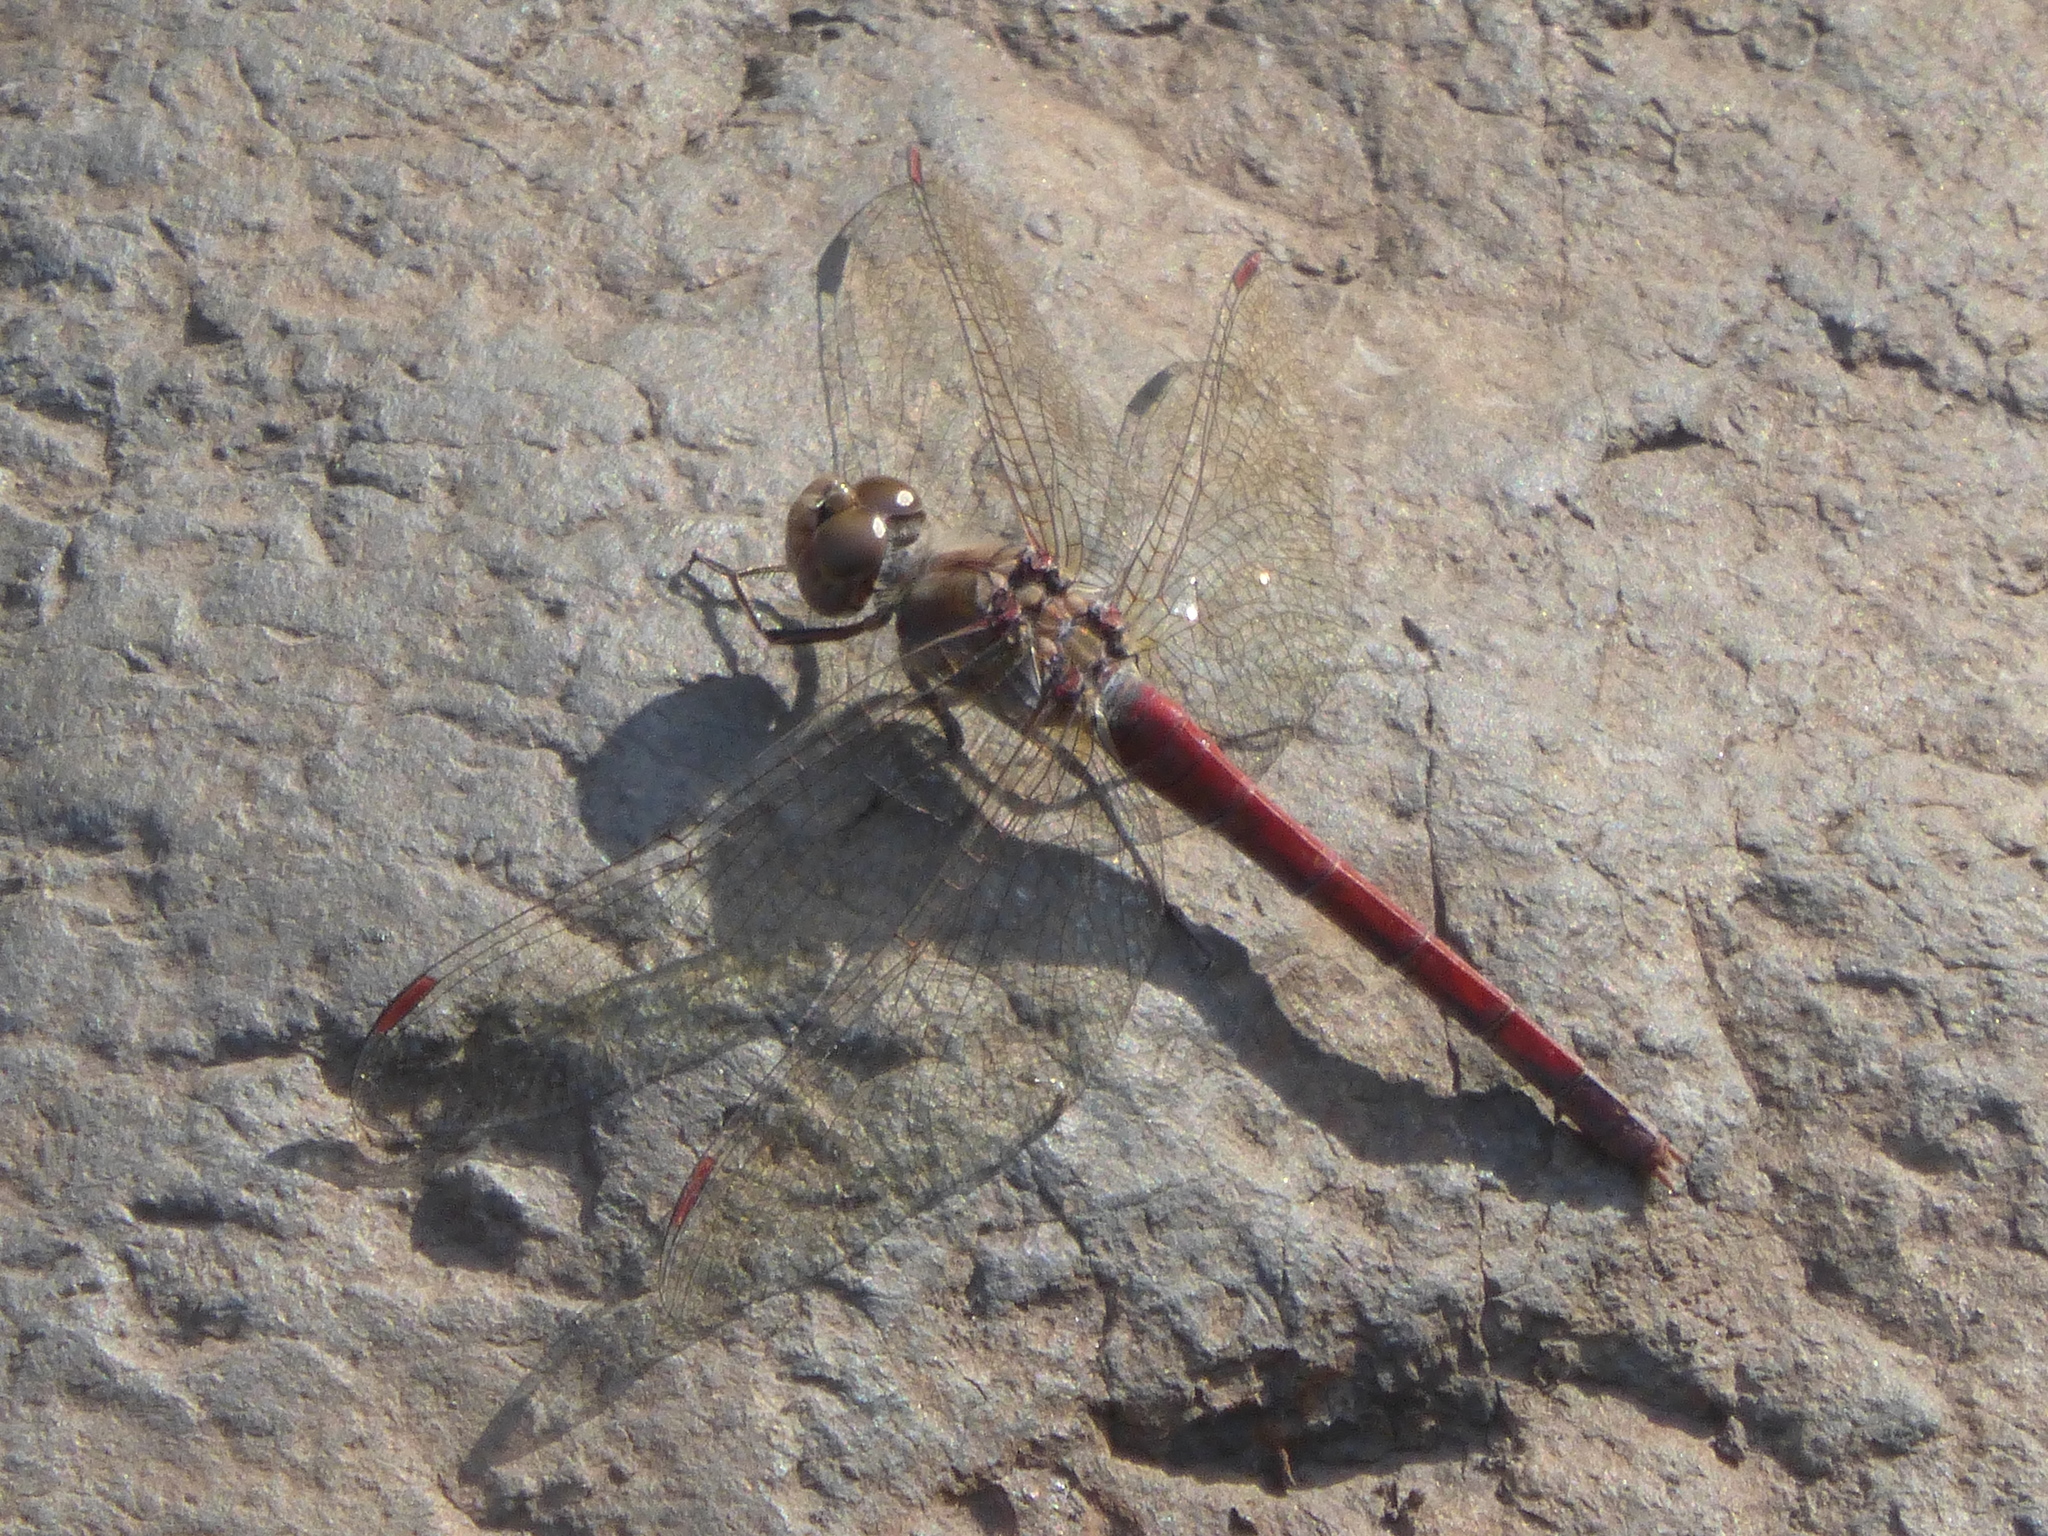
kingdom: Animalia
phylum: Arthropoda
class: Insecta
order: Odonata
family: Libellulidae
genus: Sympetrum
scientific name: Sympetrum nigrifemur
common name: Island darter
